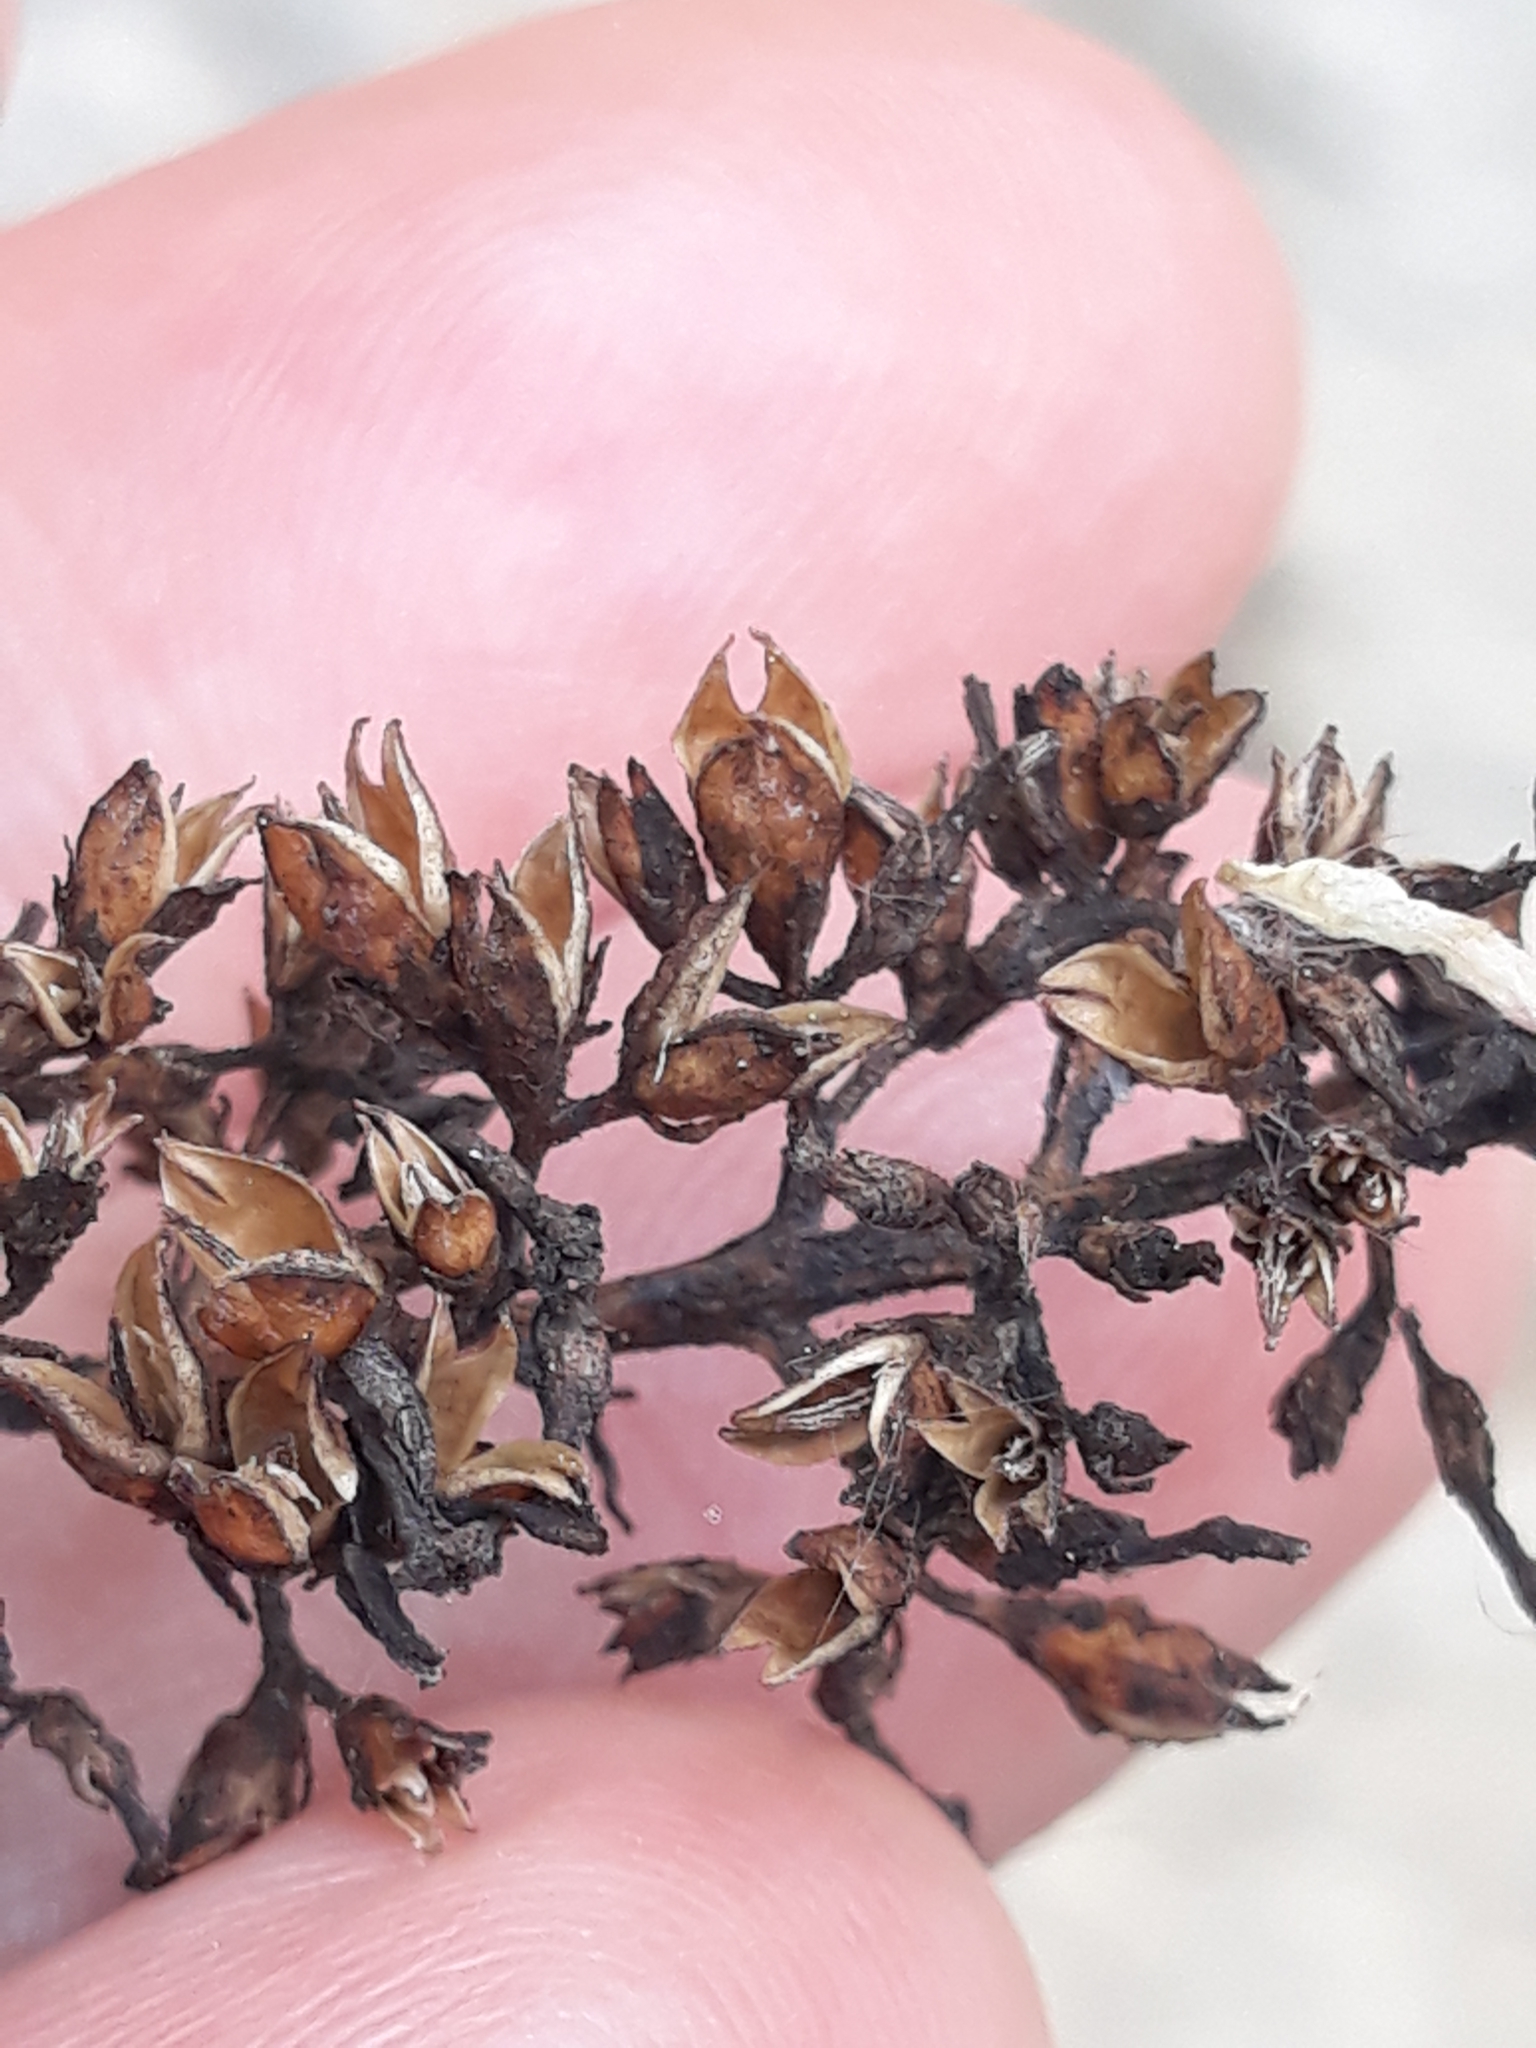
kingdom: Plantae
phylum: Tracheophyta
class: Magnoliopsida
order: Lamiales
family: Scrophulariaceae
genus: Buddleja
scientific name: Buddleja davidii
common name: Butterfly-bush
